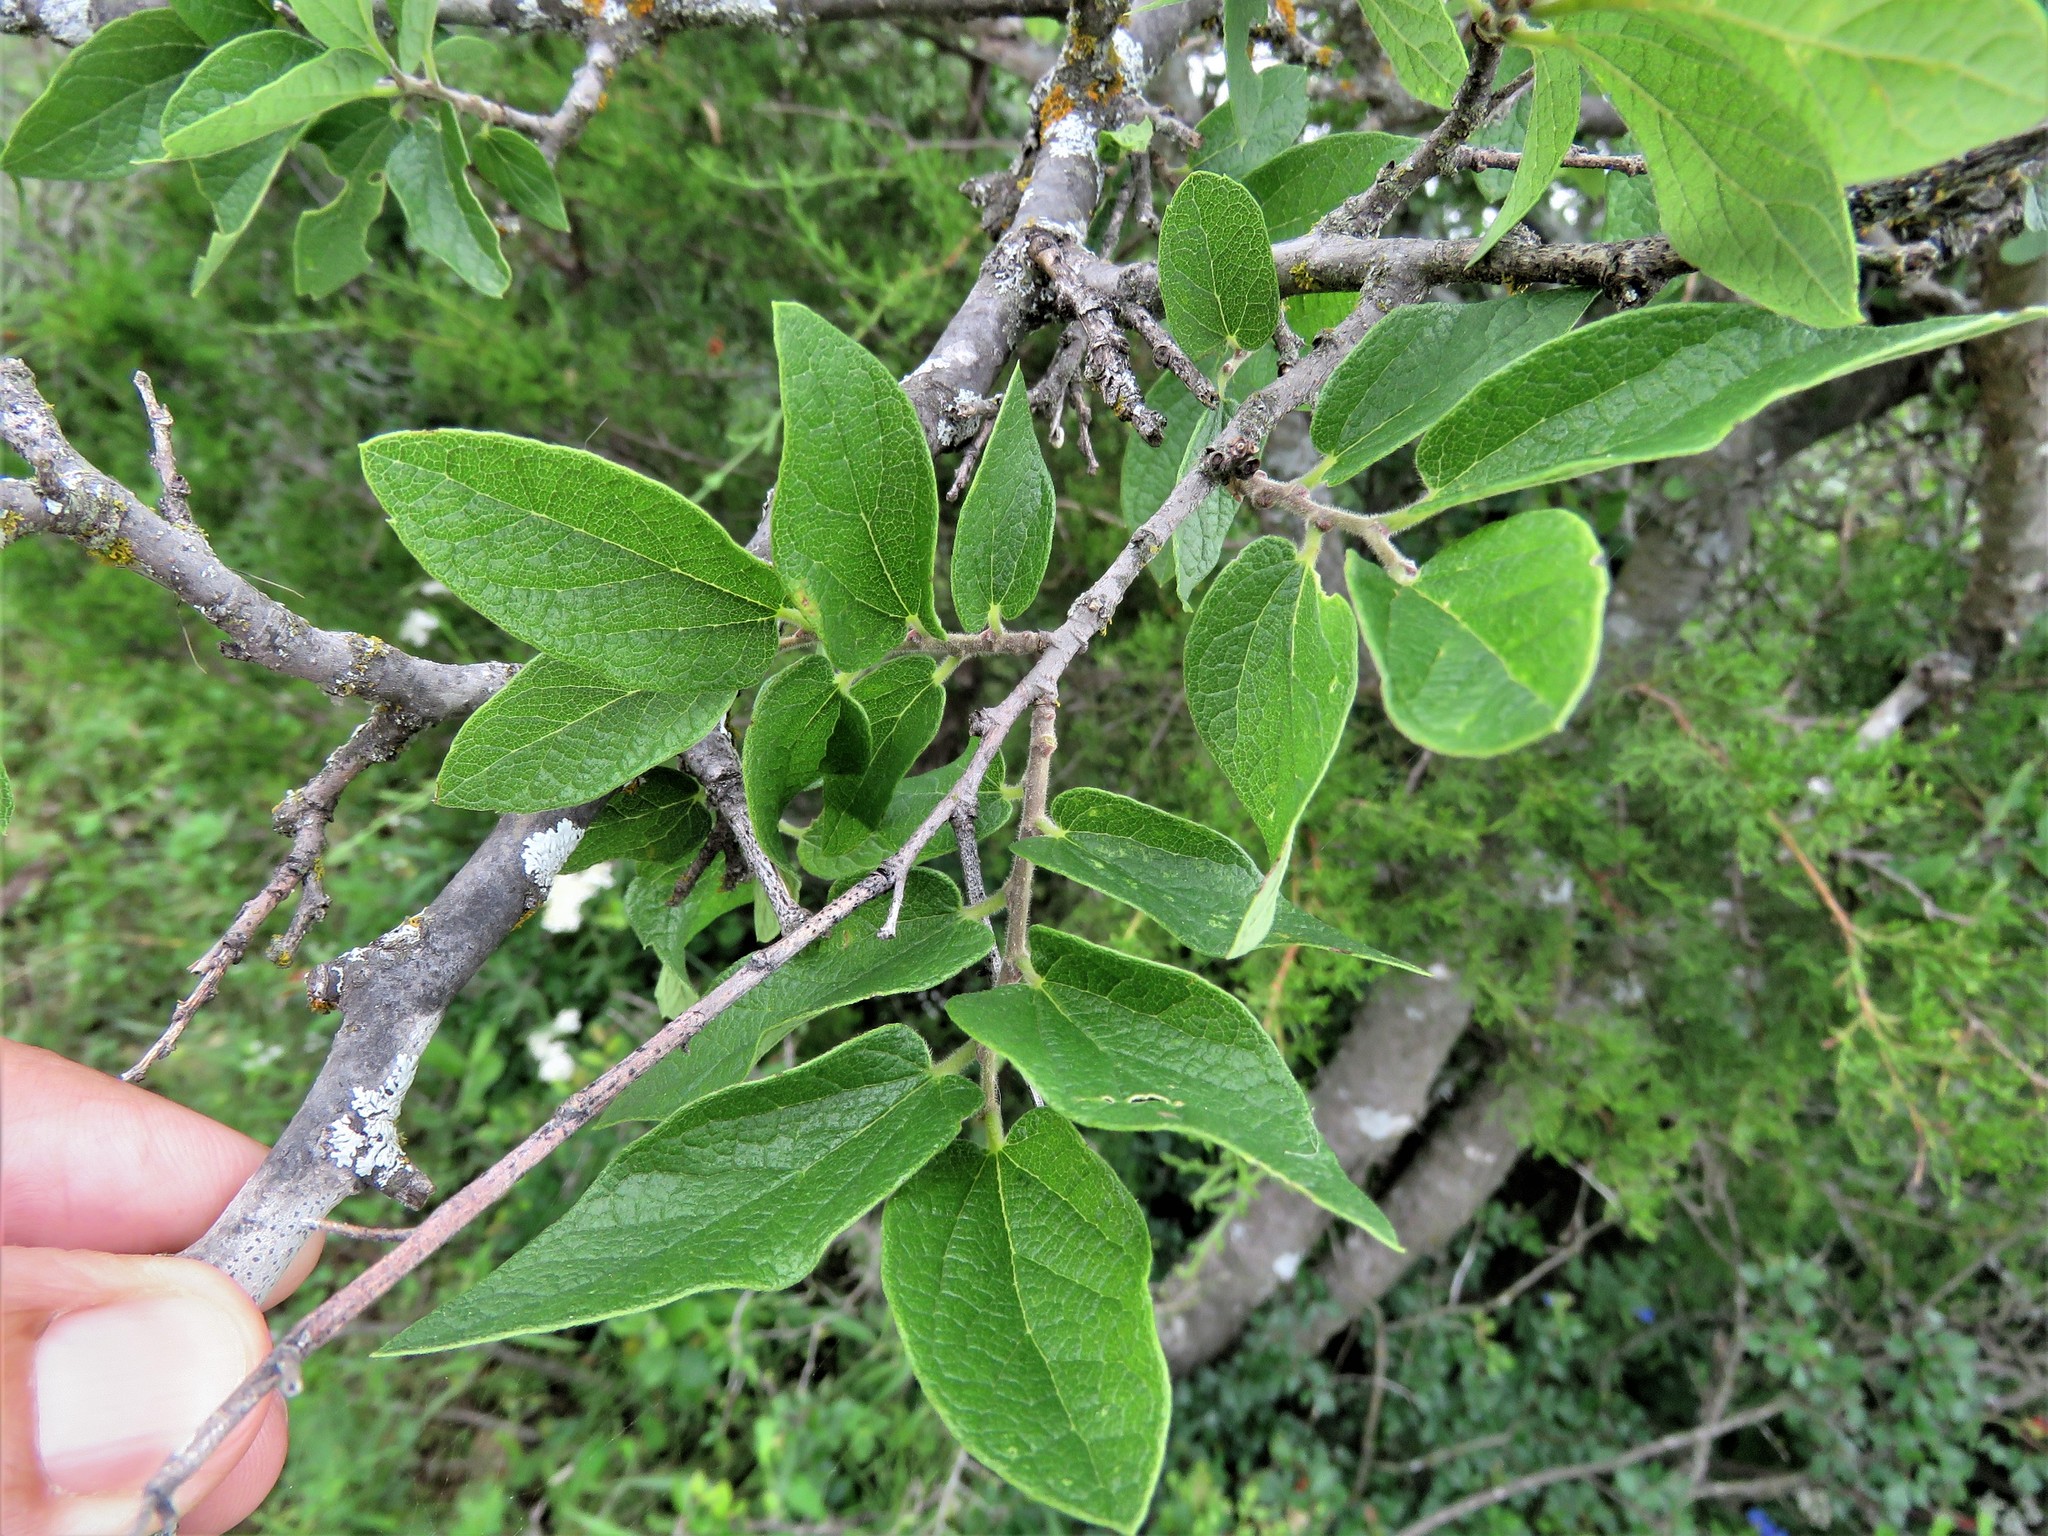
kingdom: Plantae
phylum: Tracheophyta
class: Magnoliopsida
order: Rosales
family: Cannabaceae
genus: Celtis
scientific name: Celtis reticulata
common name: Netleaf hackberry
